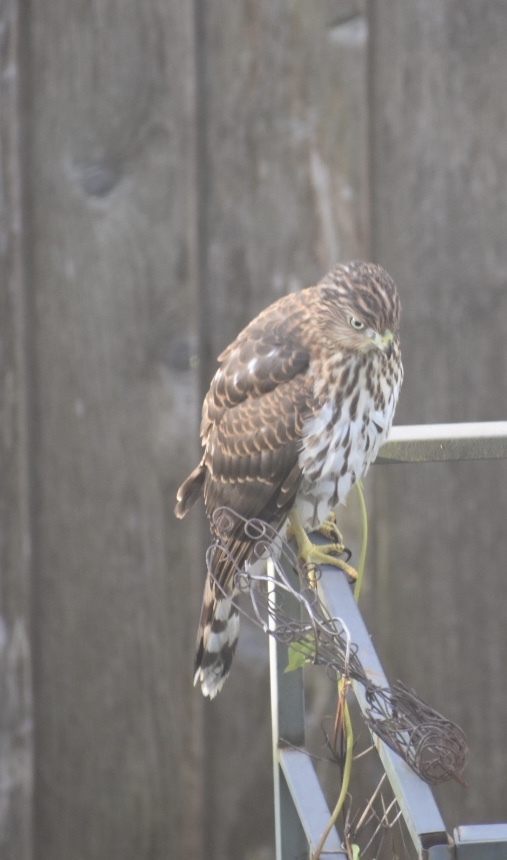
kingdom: Animalia
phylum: Chordata
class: Aves
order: Accipitriformes
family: Accipitridae
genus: Accipiter
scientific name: Accipiter cooperii
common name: Cooper's hawk
